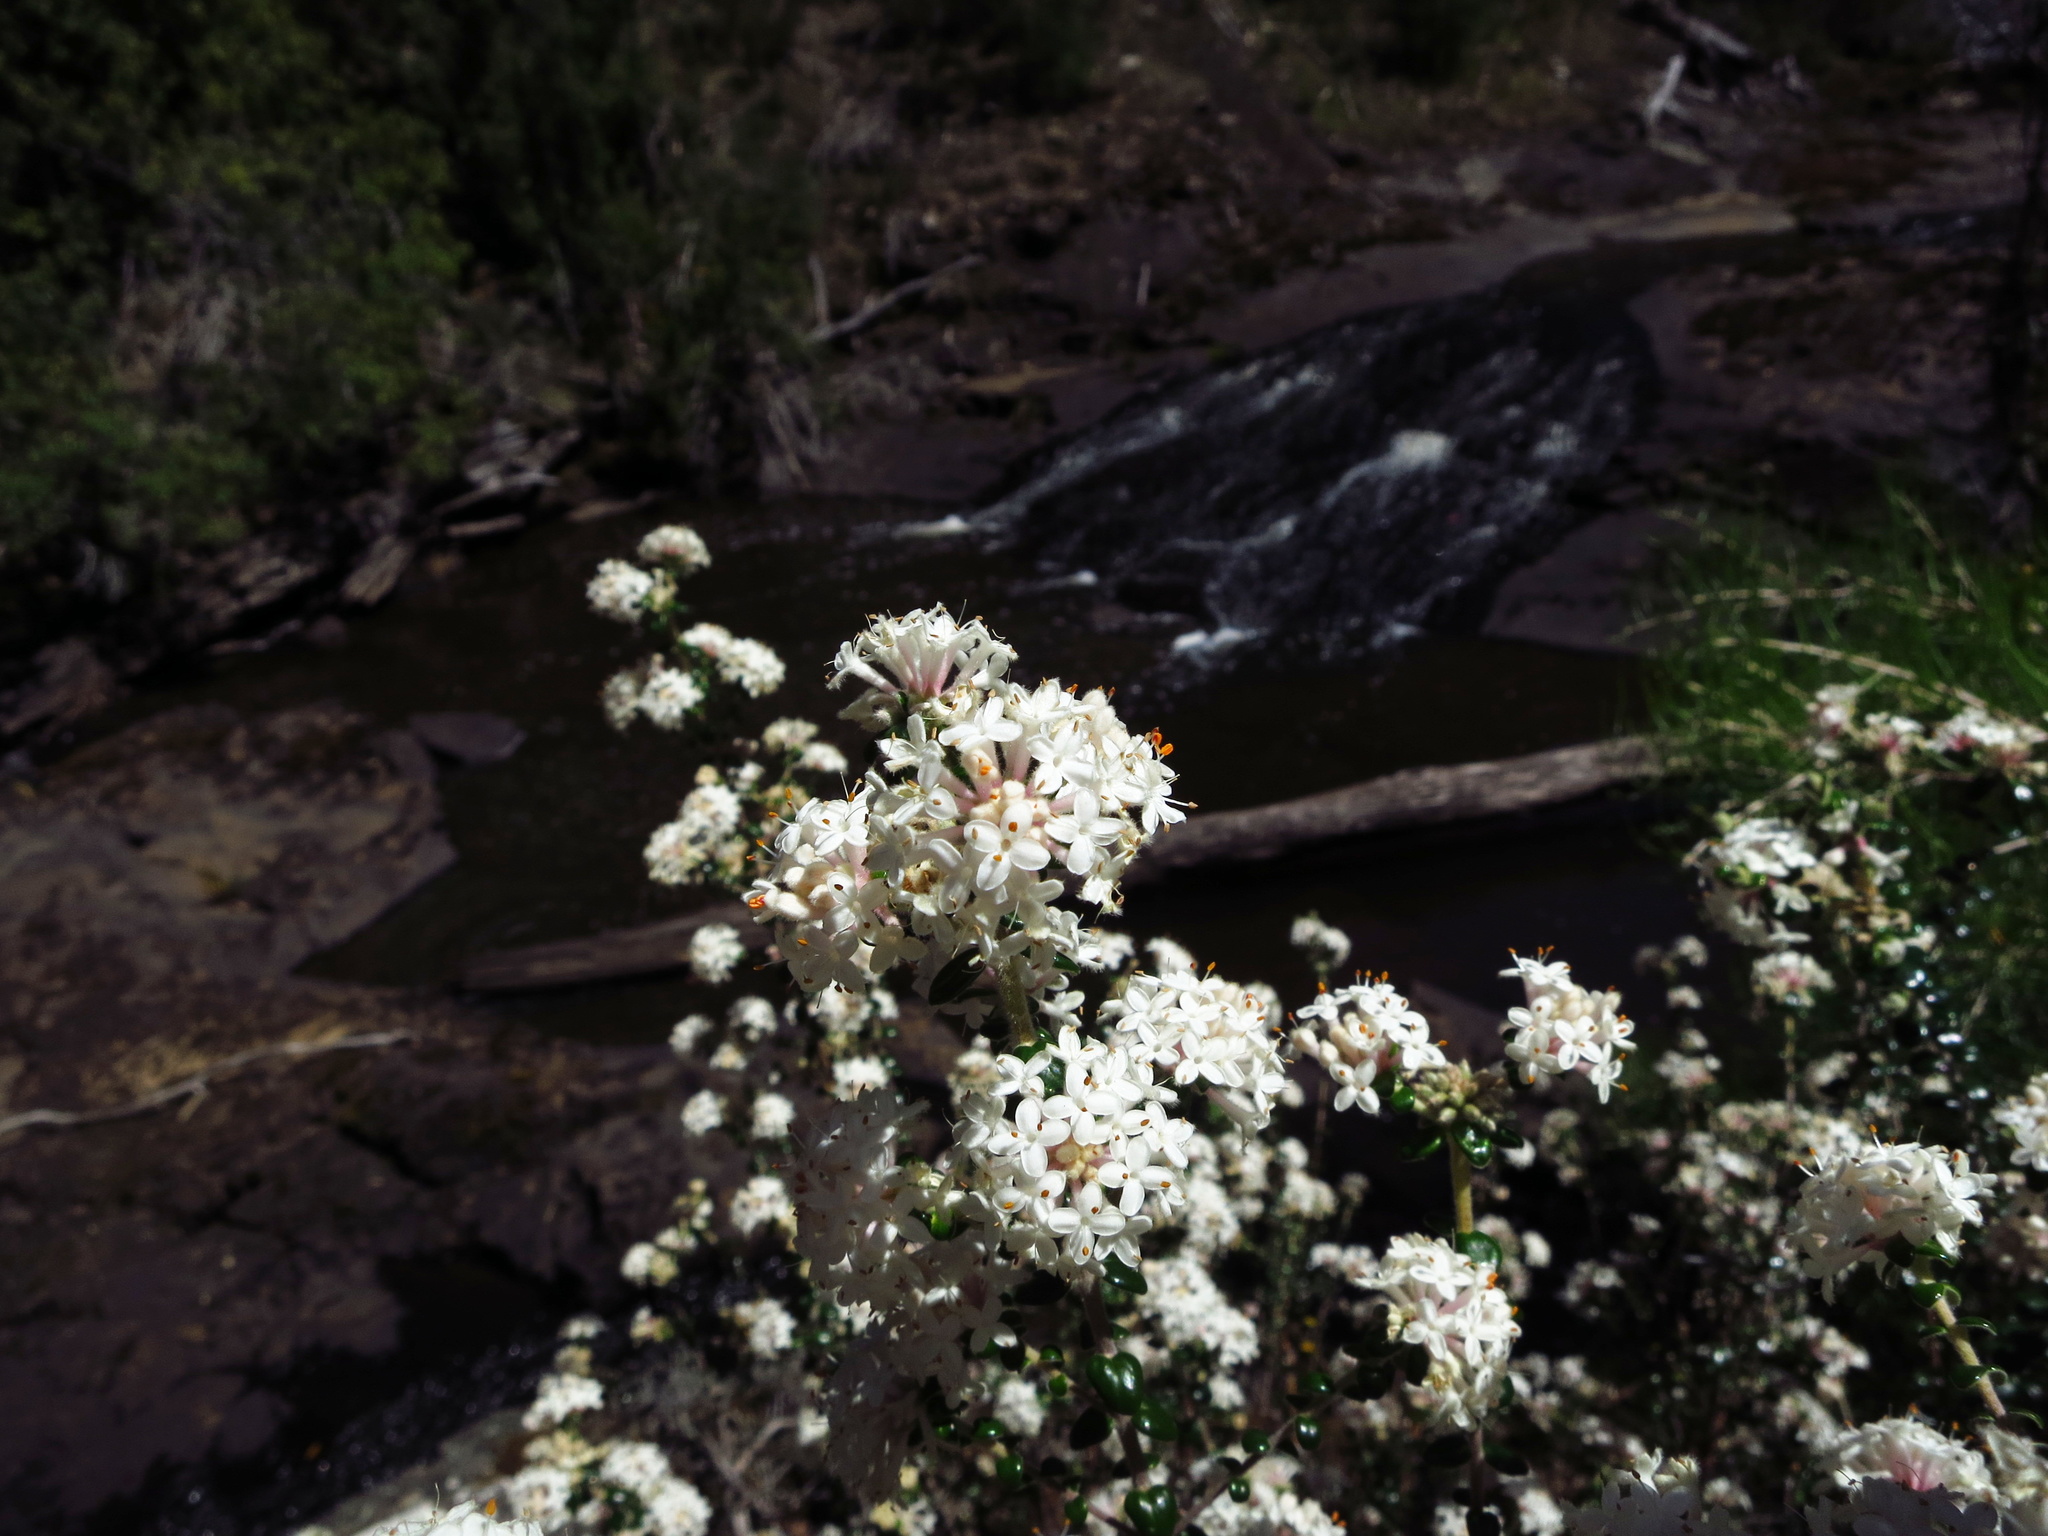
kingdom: Plantae
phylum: Tracheophyta
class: Magnoliopsida
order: Malvales
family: Thymelaeaceae
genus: Pimelea
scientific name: Pimelea nivea
